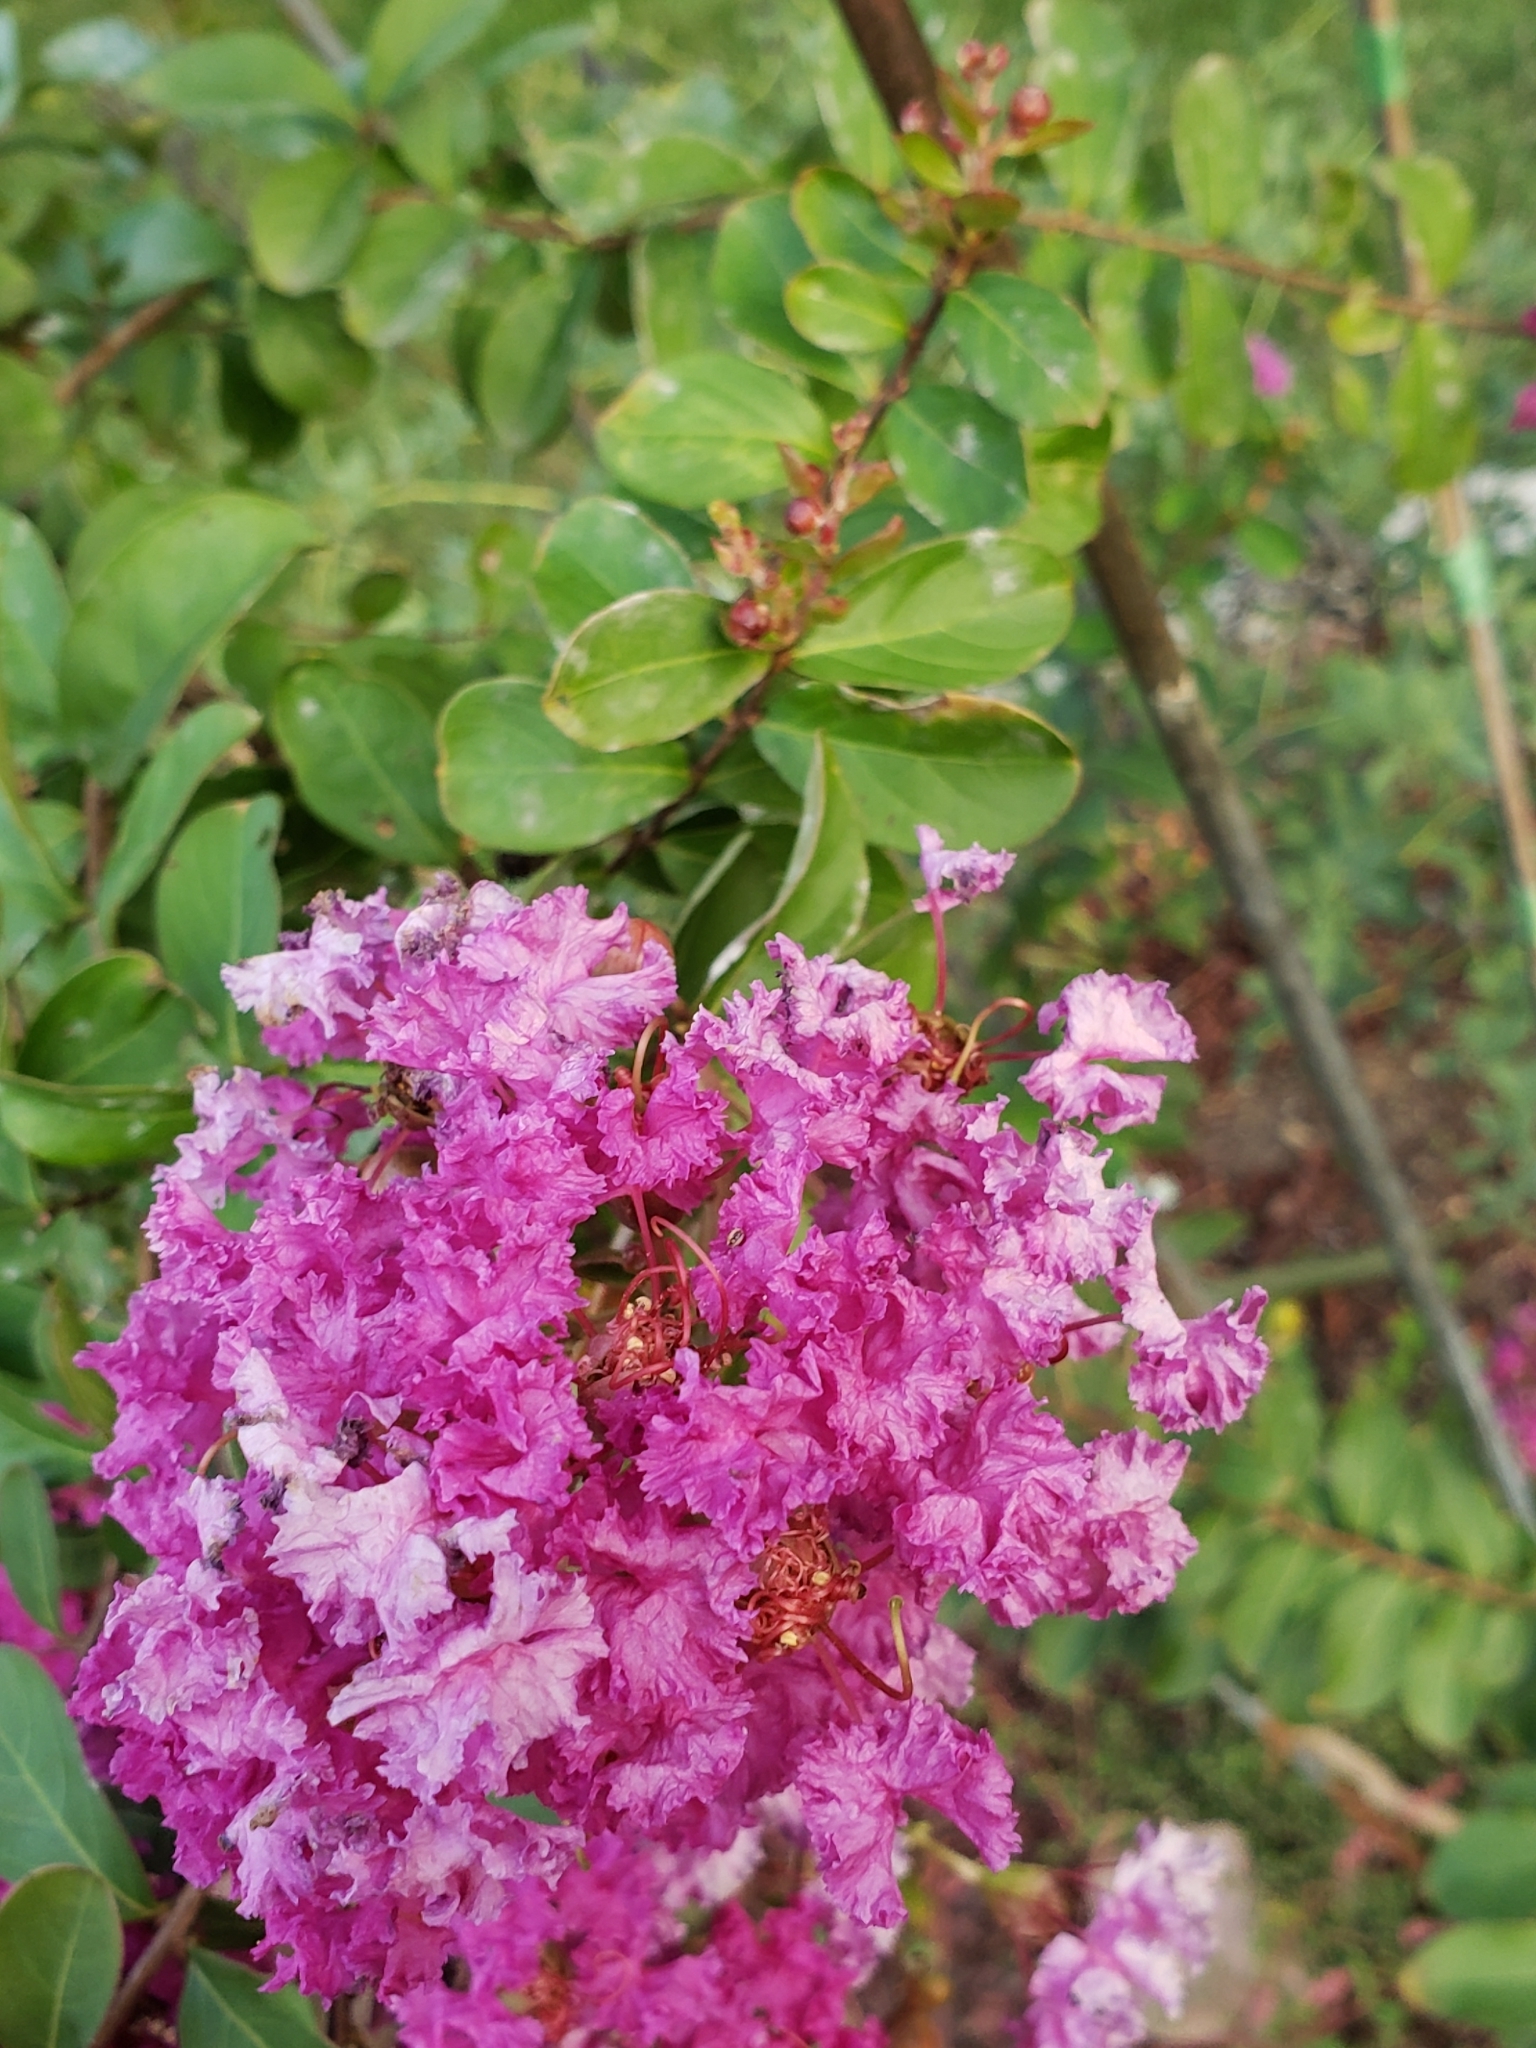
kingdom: Fungi
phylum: Ascomycota
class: Leotiomycetes
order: Helotiales
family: Erysiphaceae
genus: Erysiphe
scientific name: Erysiphe australiana
